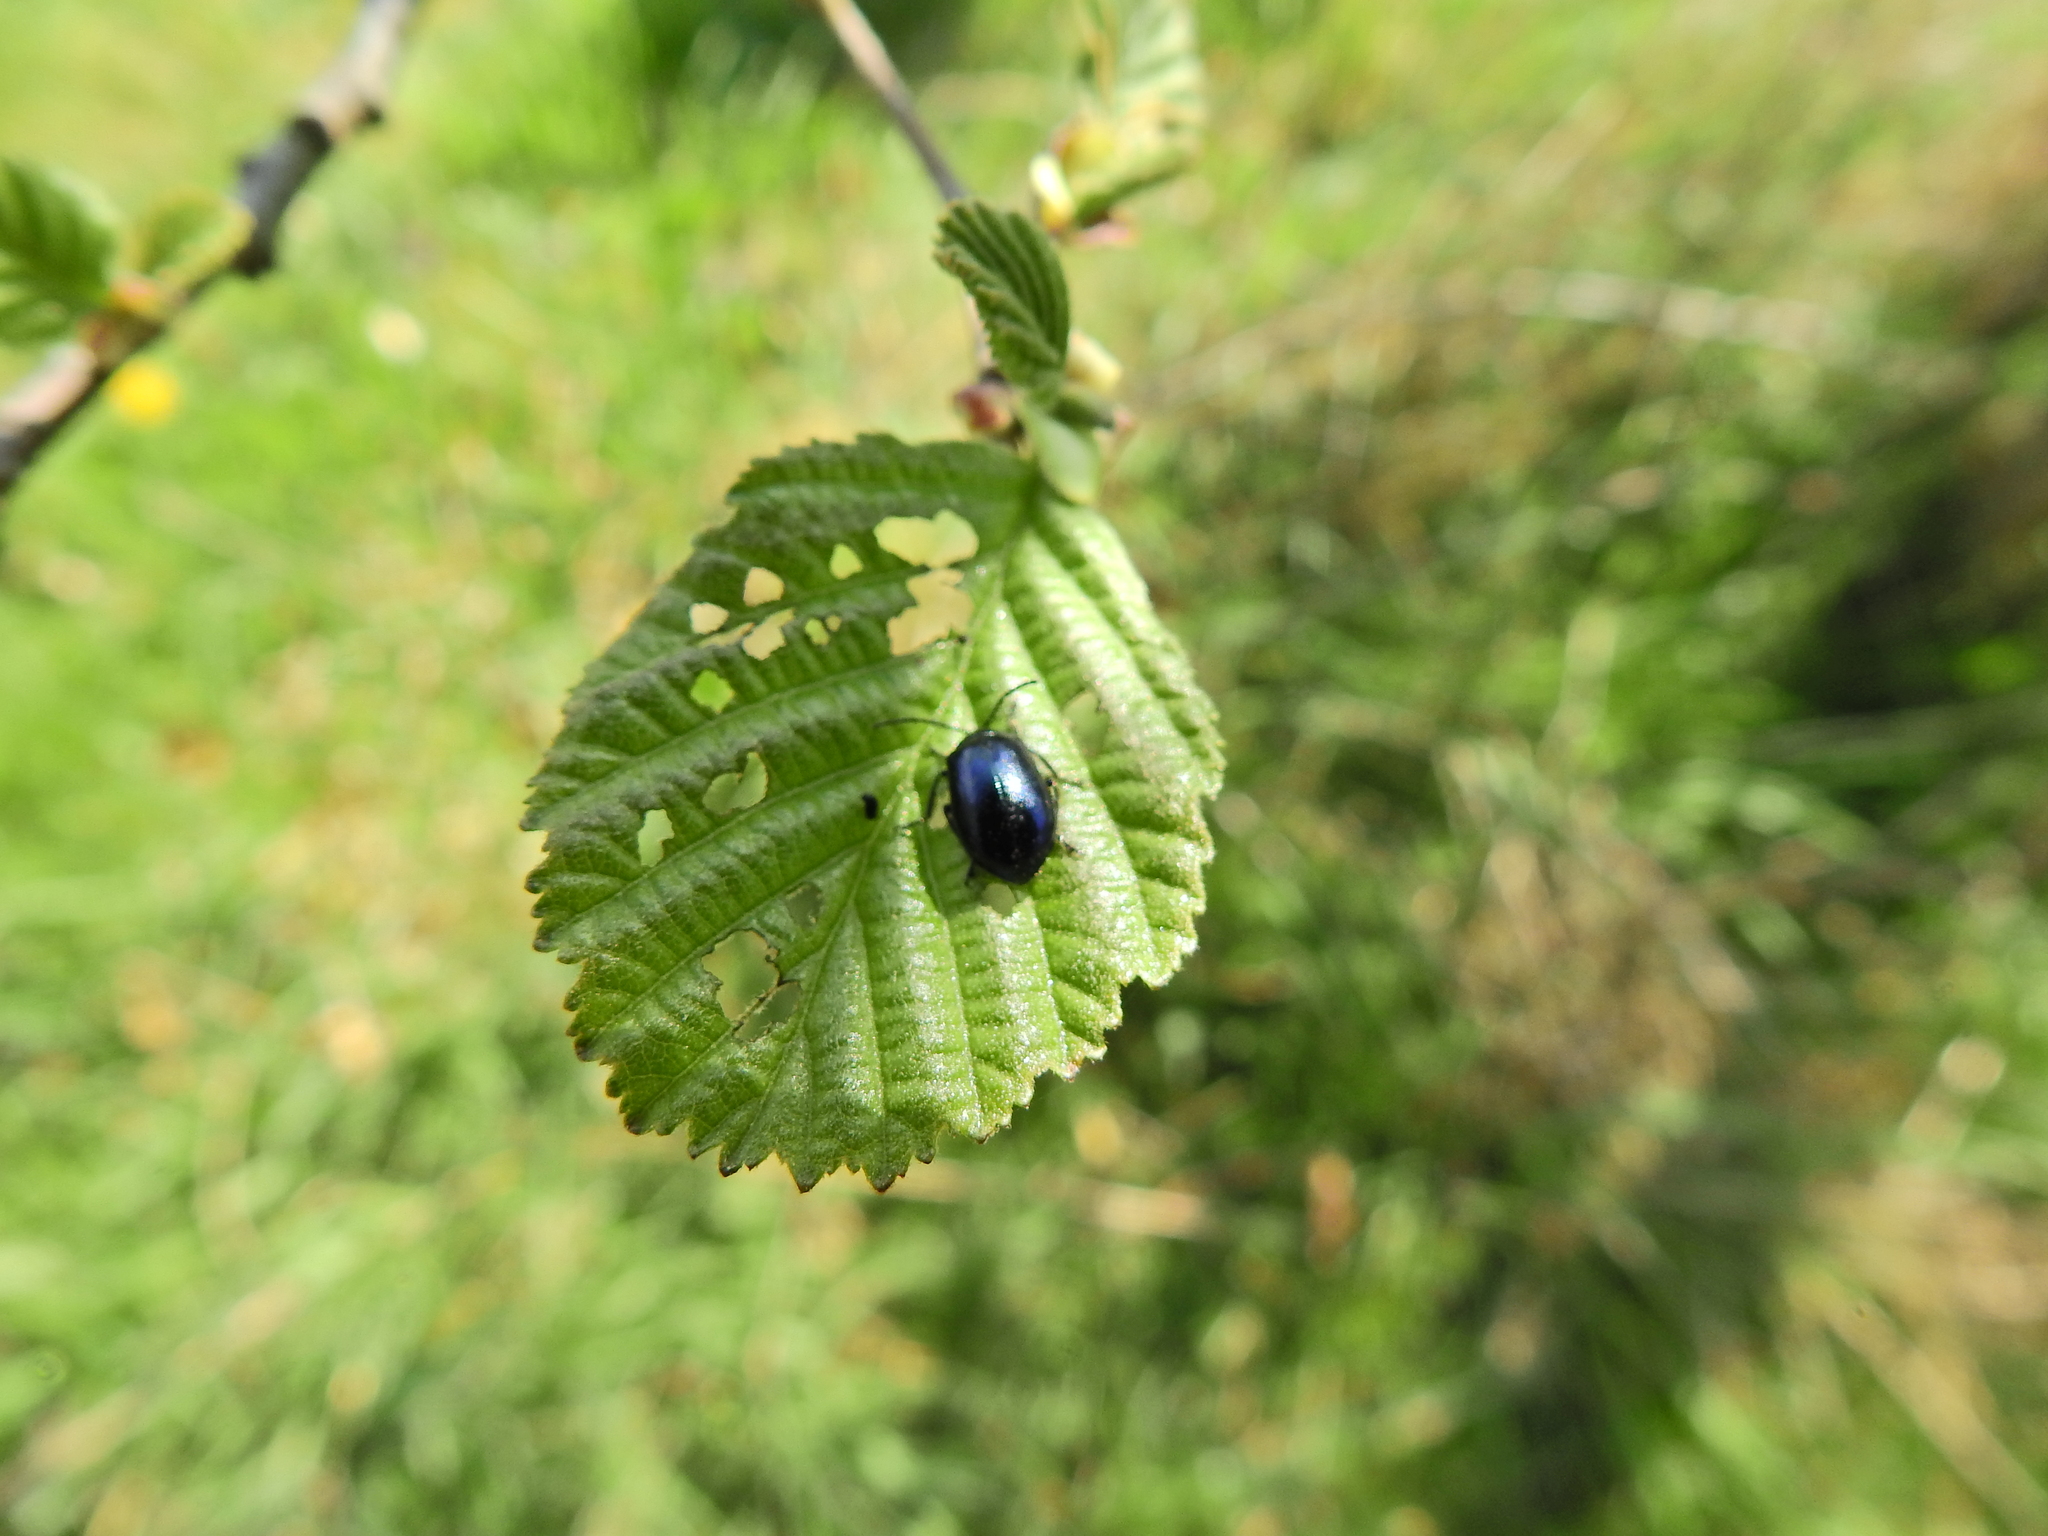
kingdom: Animalia
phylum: Arthropoda
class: Insecta
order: Coleoptera
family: Chrysomelidae
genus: Agelastica
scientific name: Agelastica alni
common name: Alder leaf beetle
